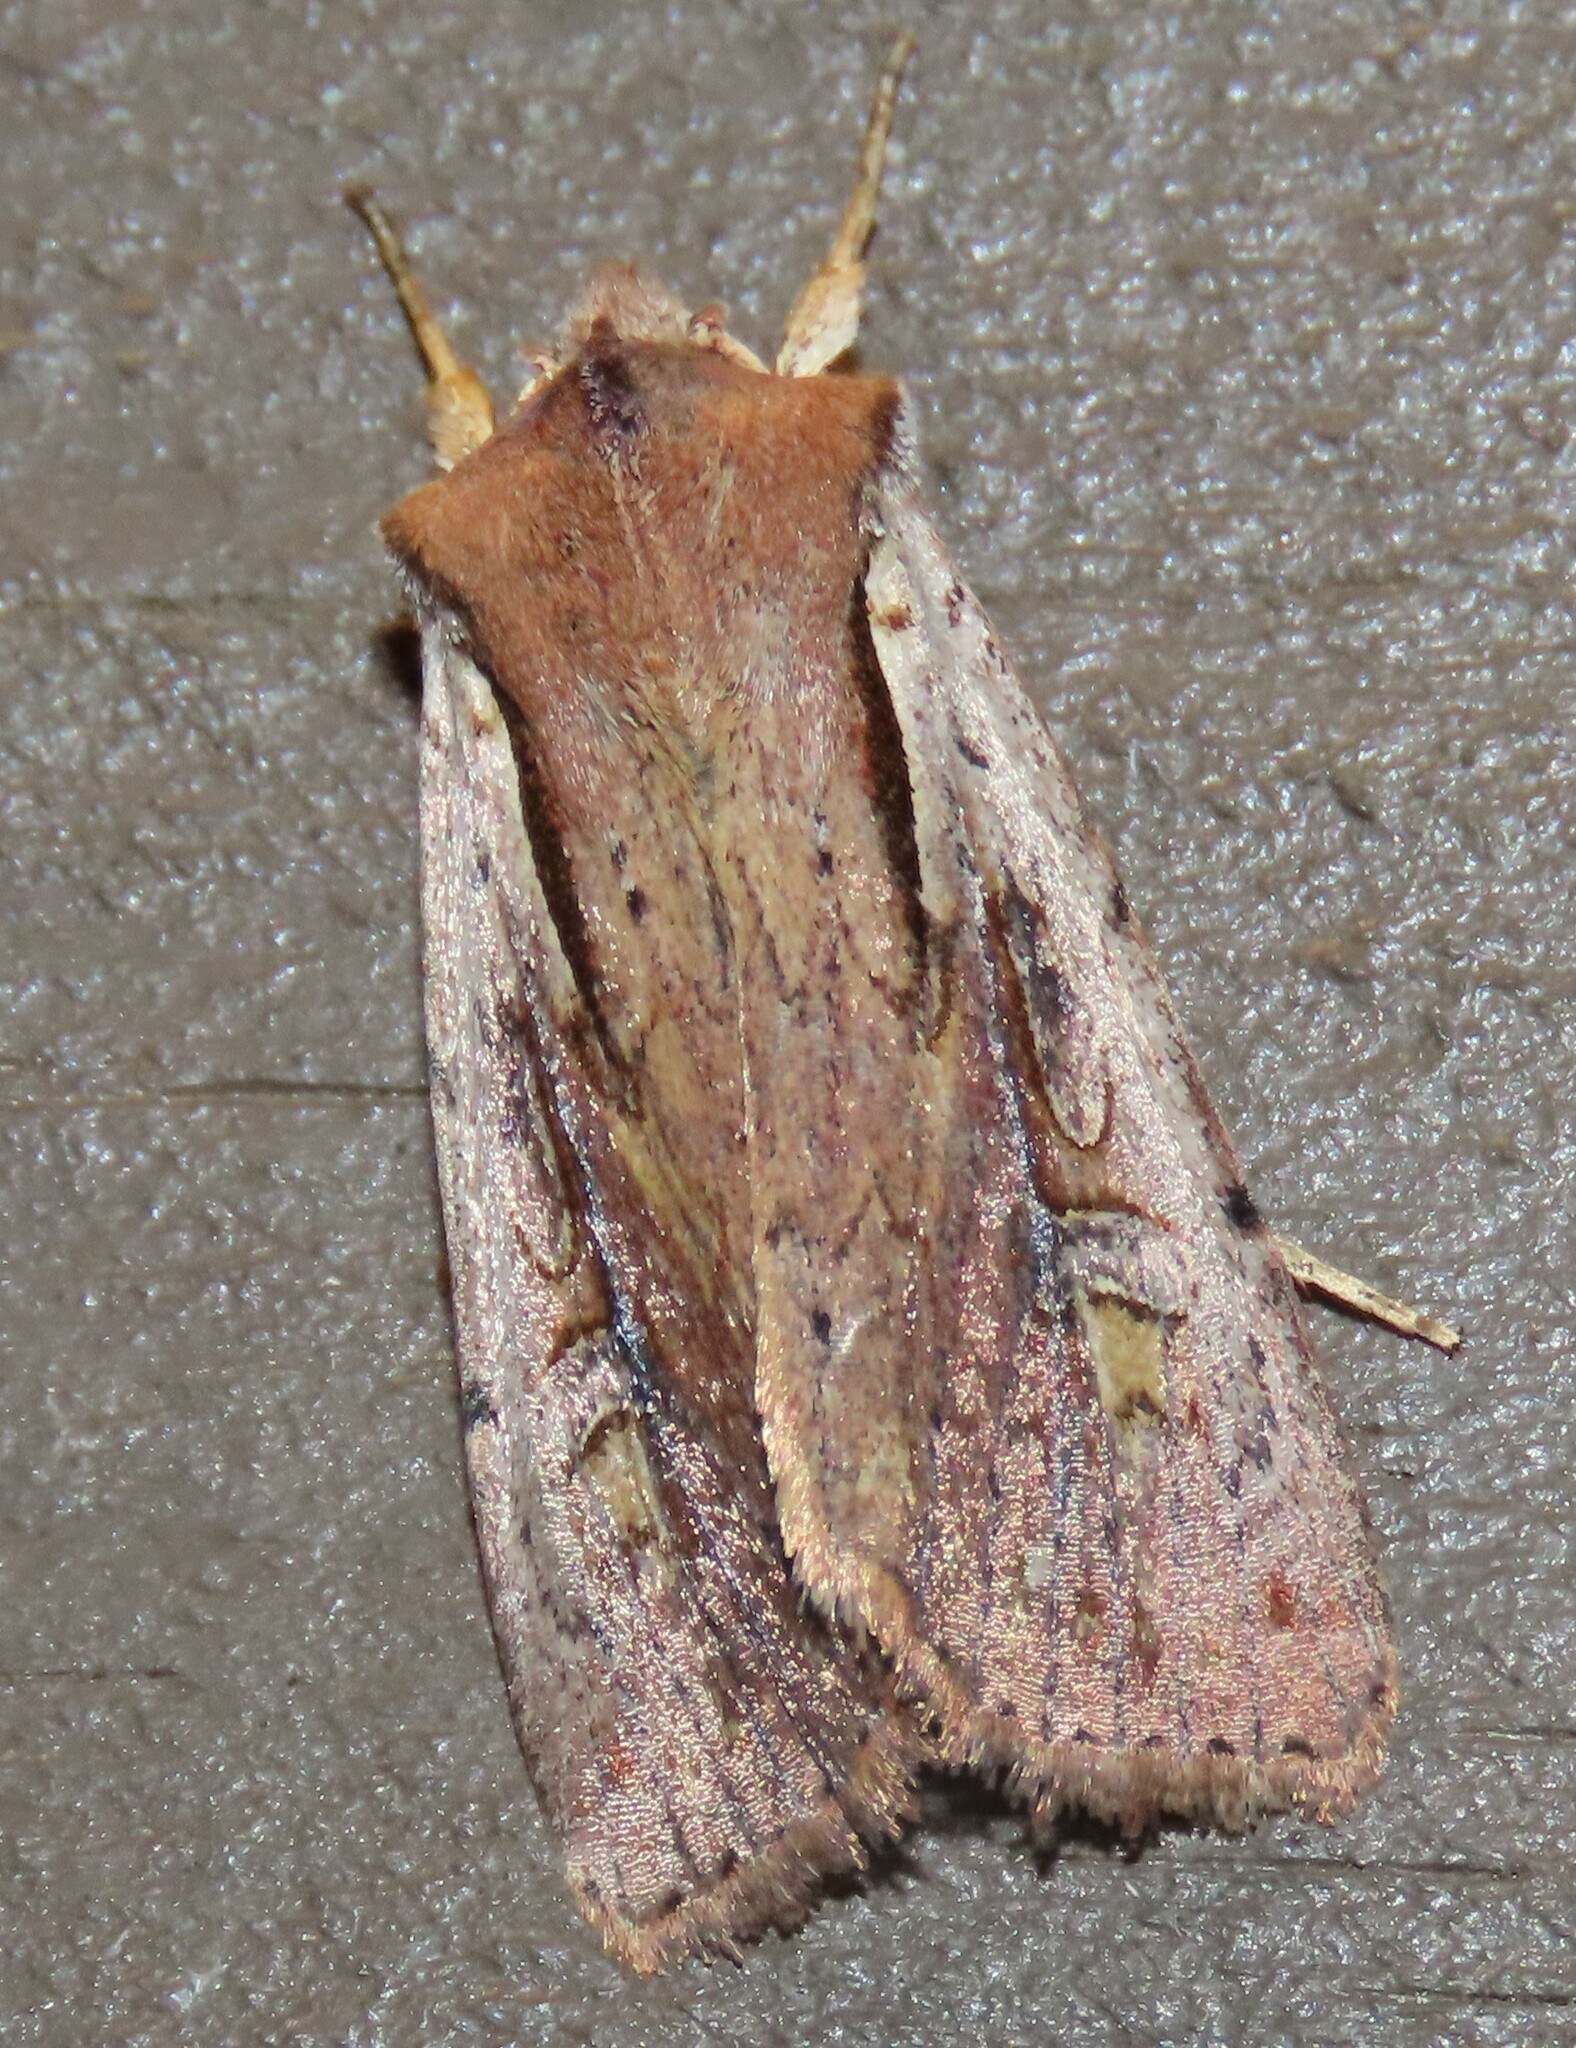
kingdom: Animalia
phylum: Arthropoda
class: Insecta
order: Lepidoptera
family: Noctuidae
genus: Ichneutica
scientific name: Ichneutica atristriga
